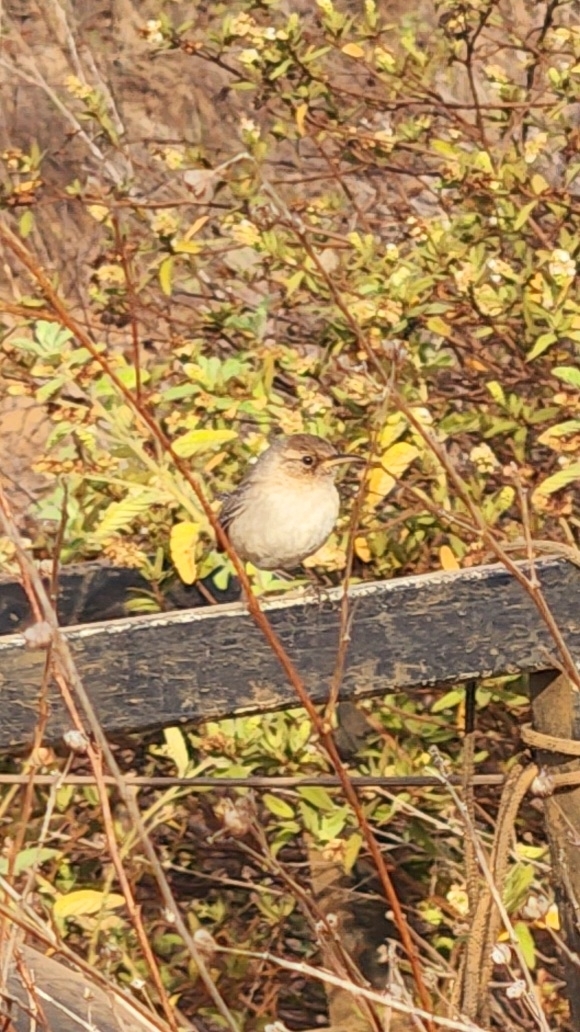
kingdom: Animalia
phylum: Chordata
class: Aves
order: Passeriformes
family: Troglodytidae
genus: Troglodytes
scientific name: Troglodytes sissonii
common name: Socorro wren
